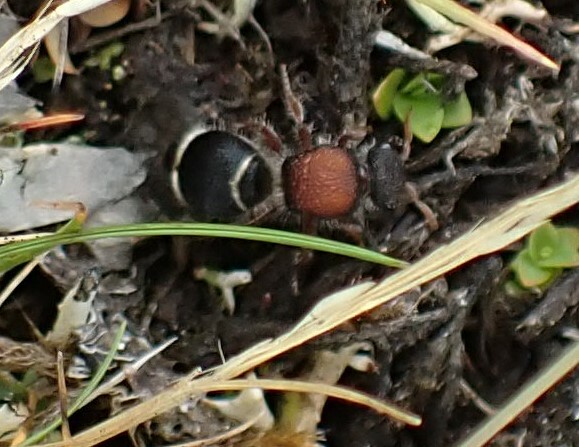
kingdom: Animalia
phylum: Arthropoda
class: Insecta
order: Hymenoptera
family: Mutillidae
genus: Ephutomorpha
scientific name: Ephutomorpha
